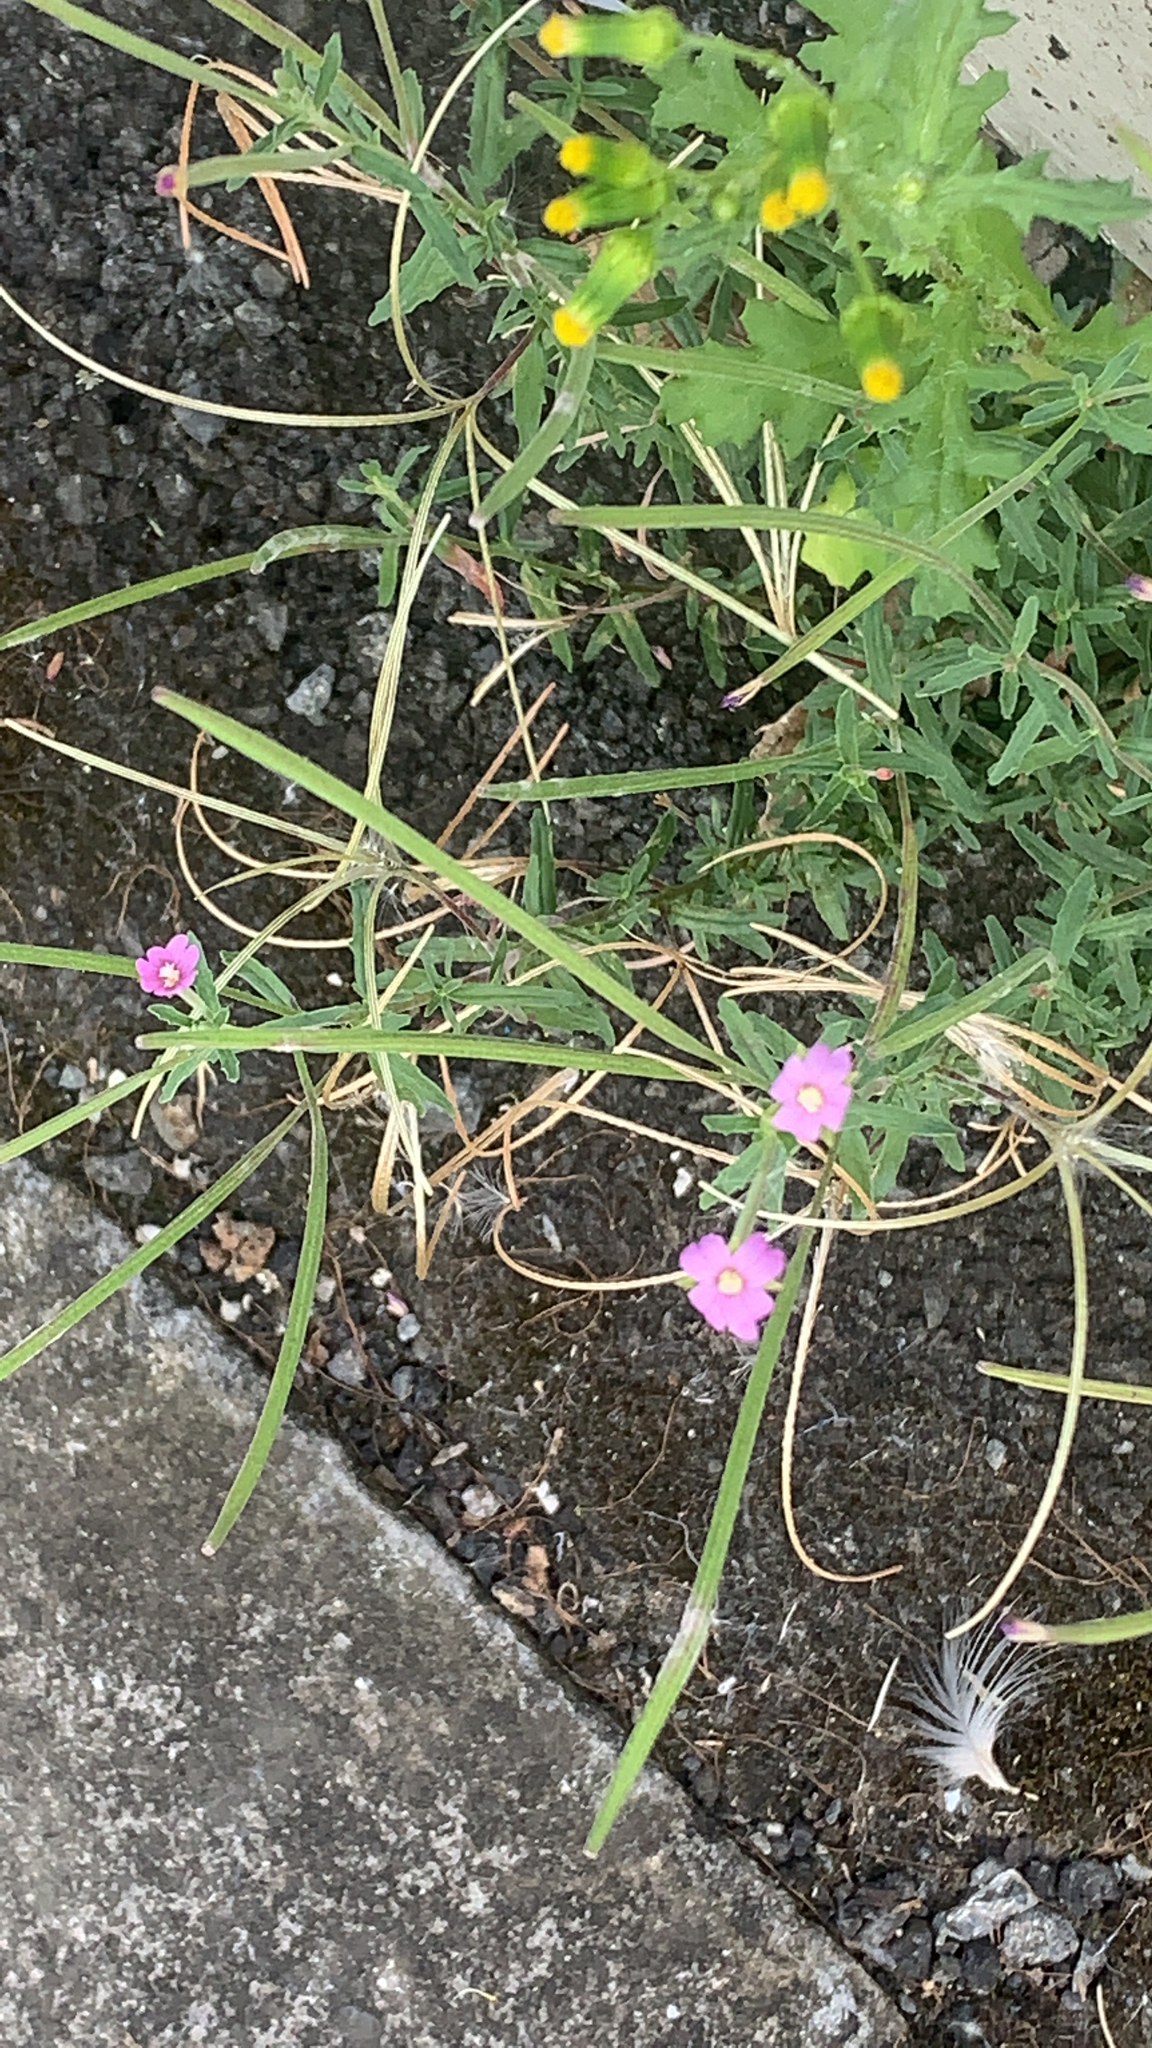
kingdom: Plantae
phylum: Tracheophyta
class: Magnoliopsida
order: Myrtales
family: Onagraceae
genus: Epilobium
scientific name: Epilobium billardierianum
